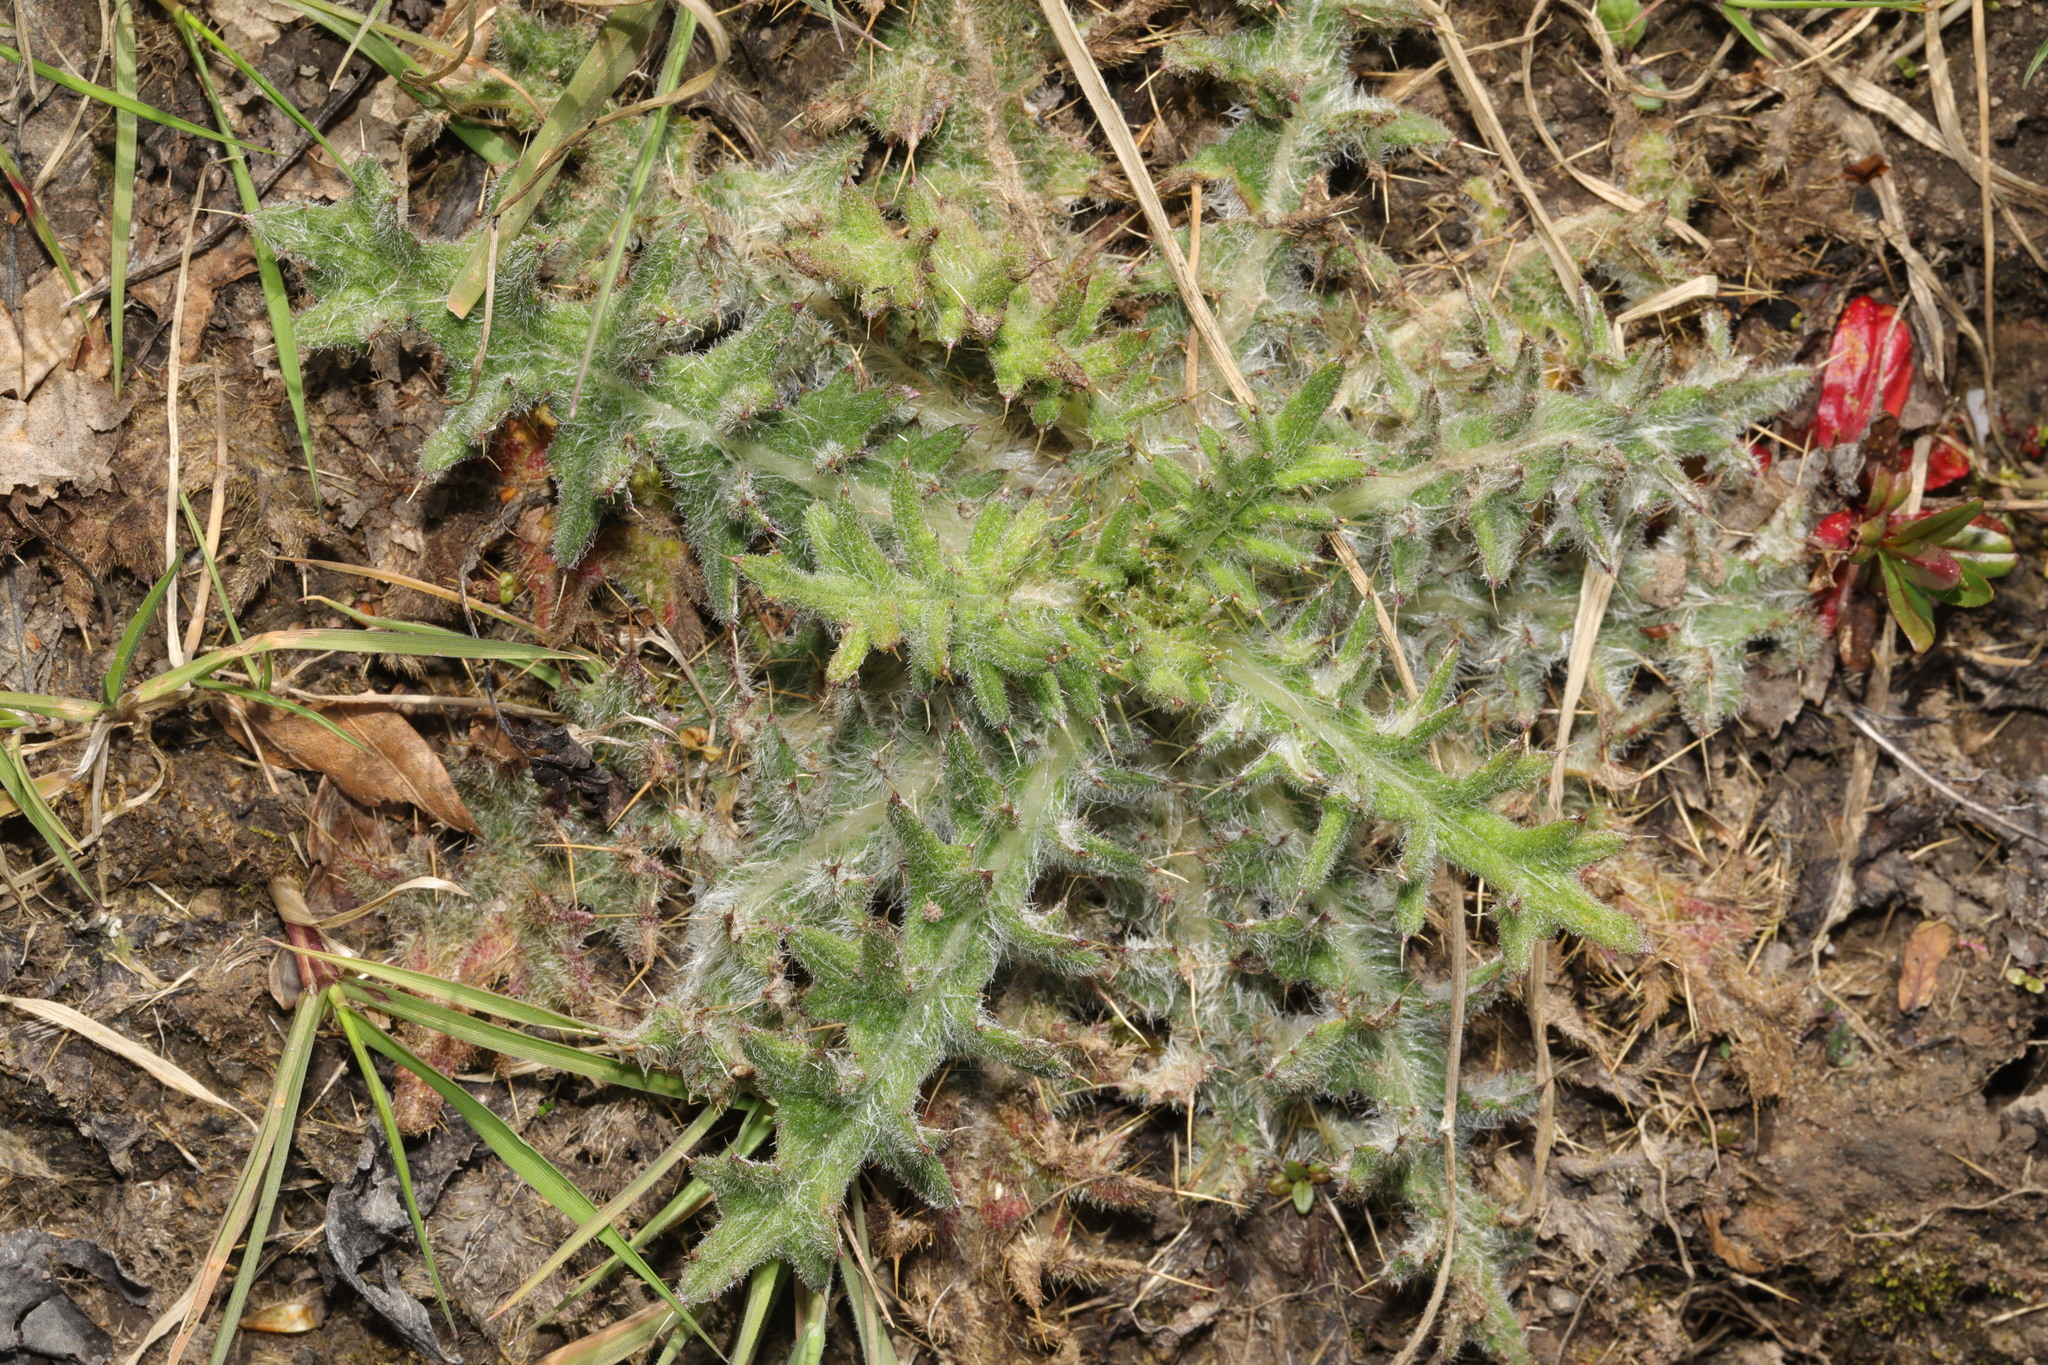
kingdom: Plantae
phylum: Tracheophyta
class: Magnoliopsida
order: Asterales
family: Asteraceae
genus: Cirsium
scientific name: Cirsium vulgare
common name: Bull thistle
